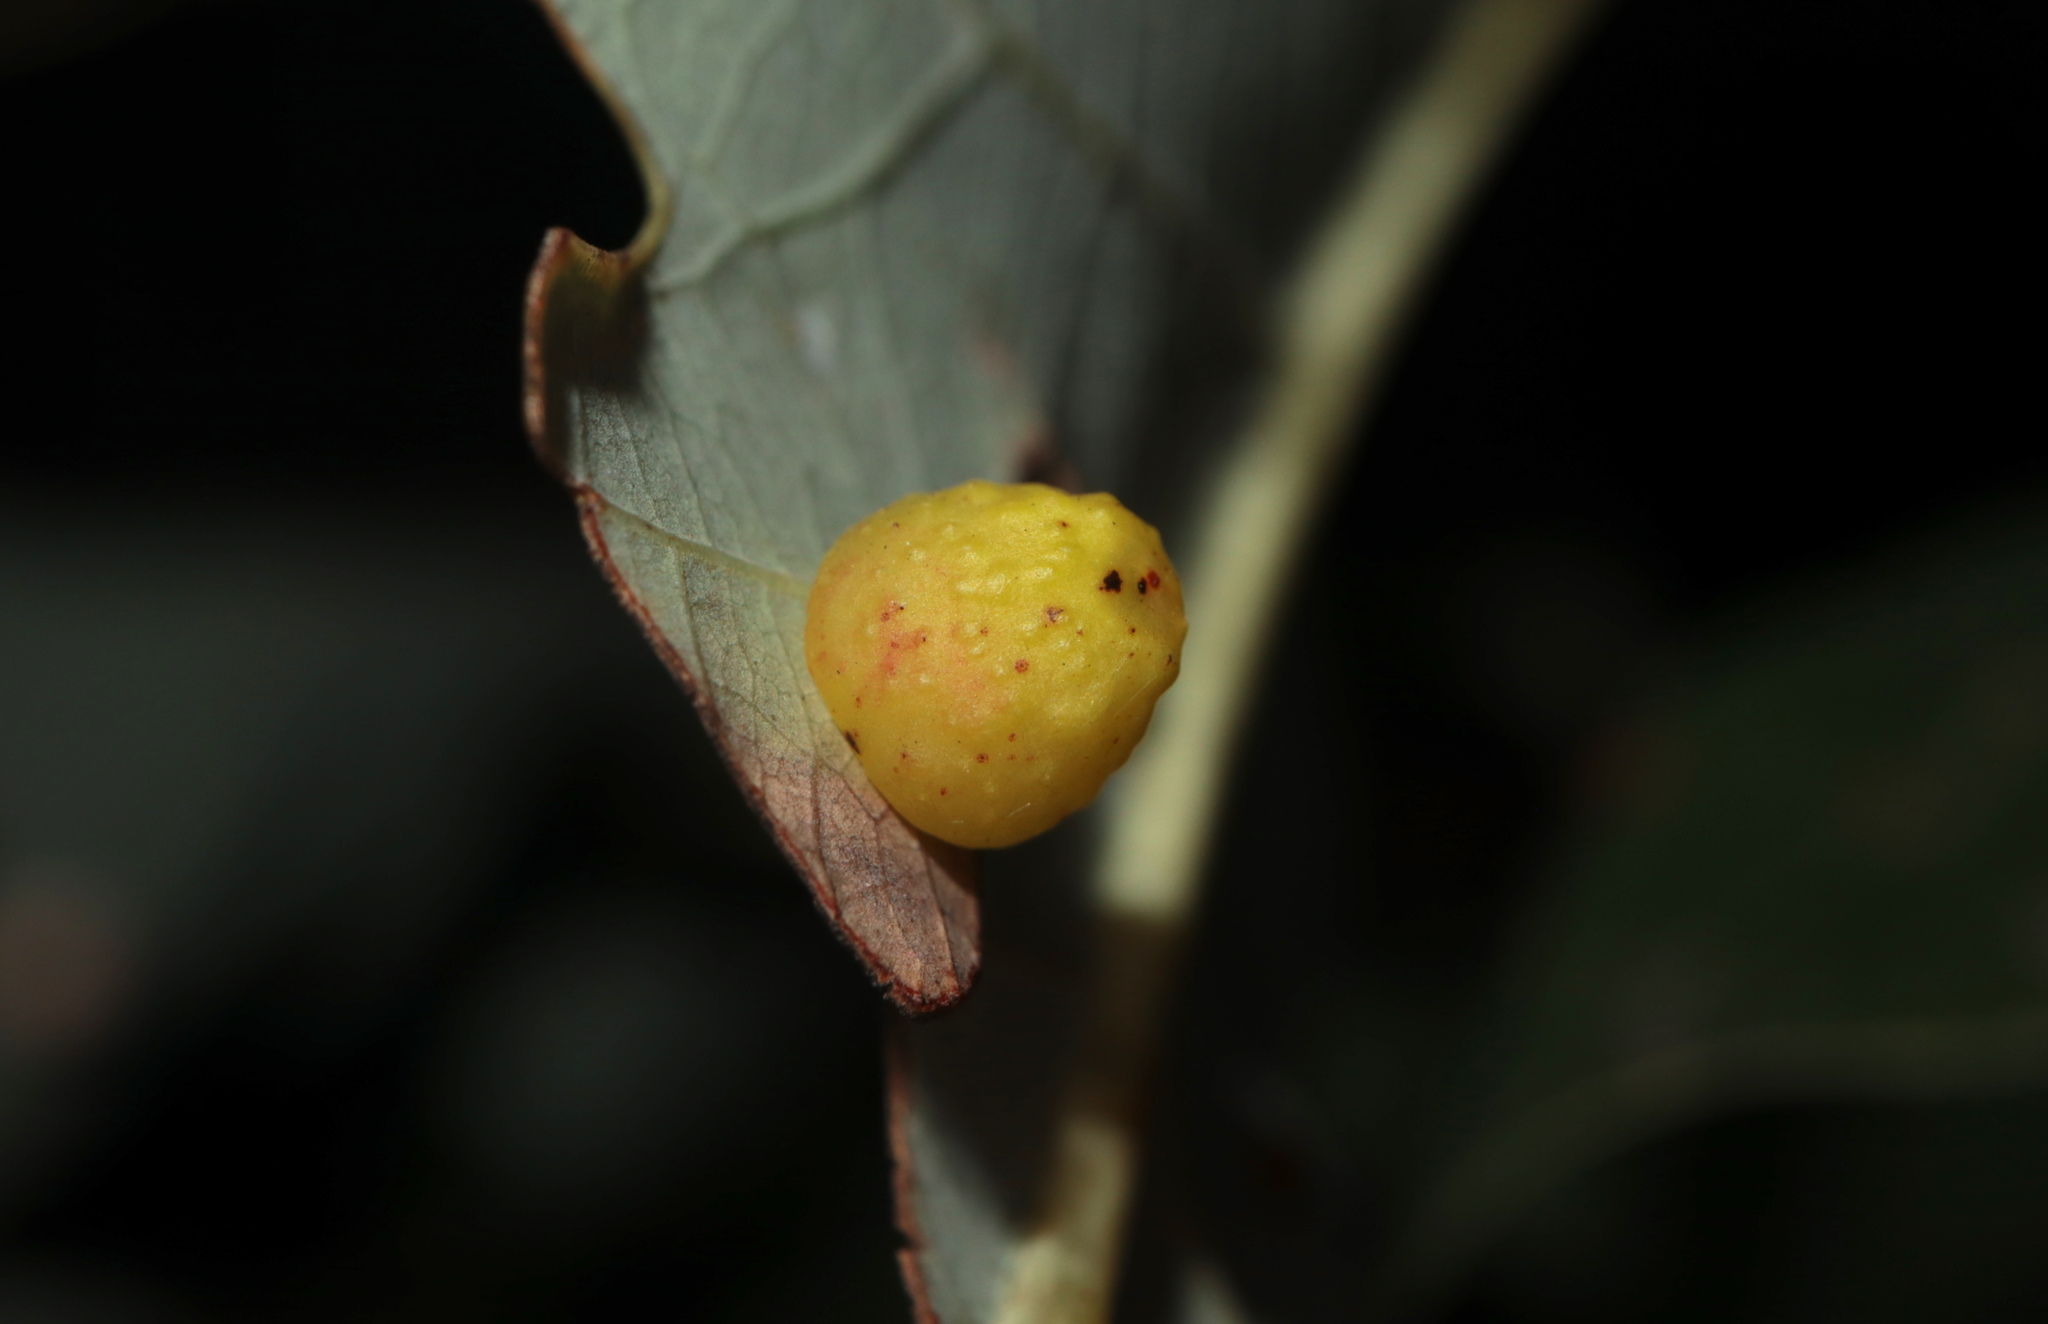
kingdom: Animalia
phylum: Arthropoda
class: Insecta
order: Hymenoptera
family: Cynipidae
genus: Andricus
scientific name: Andricus
